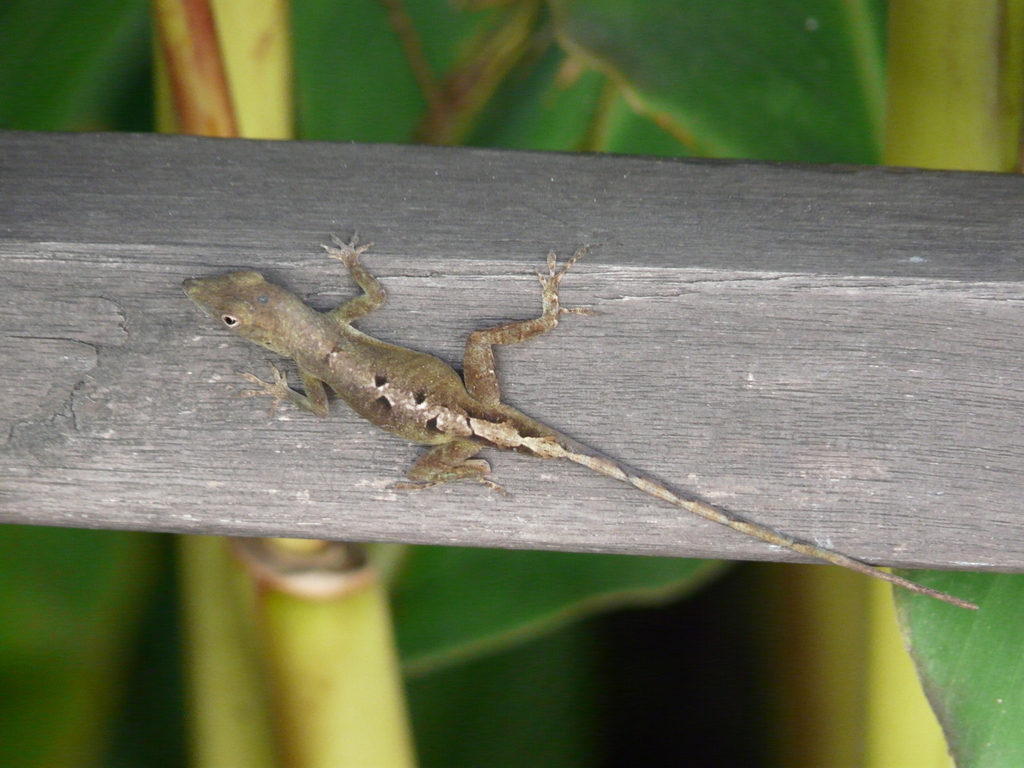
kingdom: Animalia
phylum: Chordata
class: Squamata
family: Dactyloidae
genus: Anolis
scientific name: Anolis grahami
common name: Graham's anole
